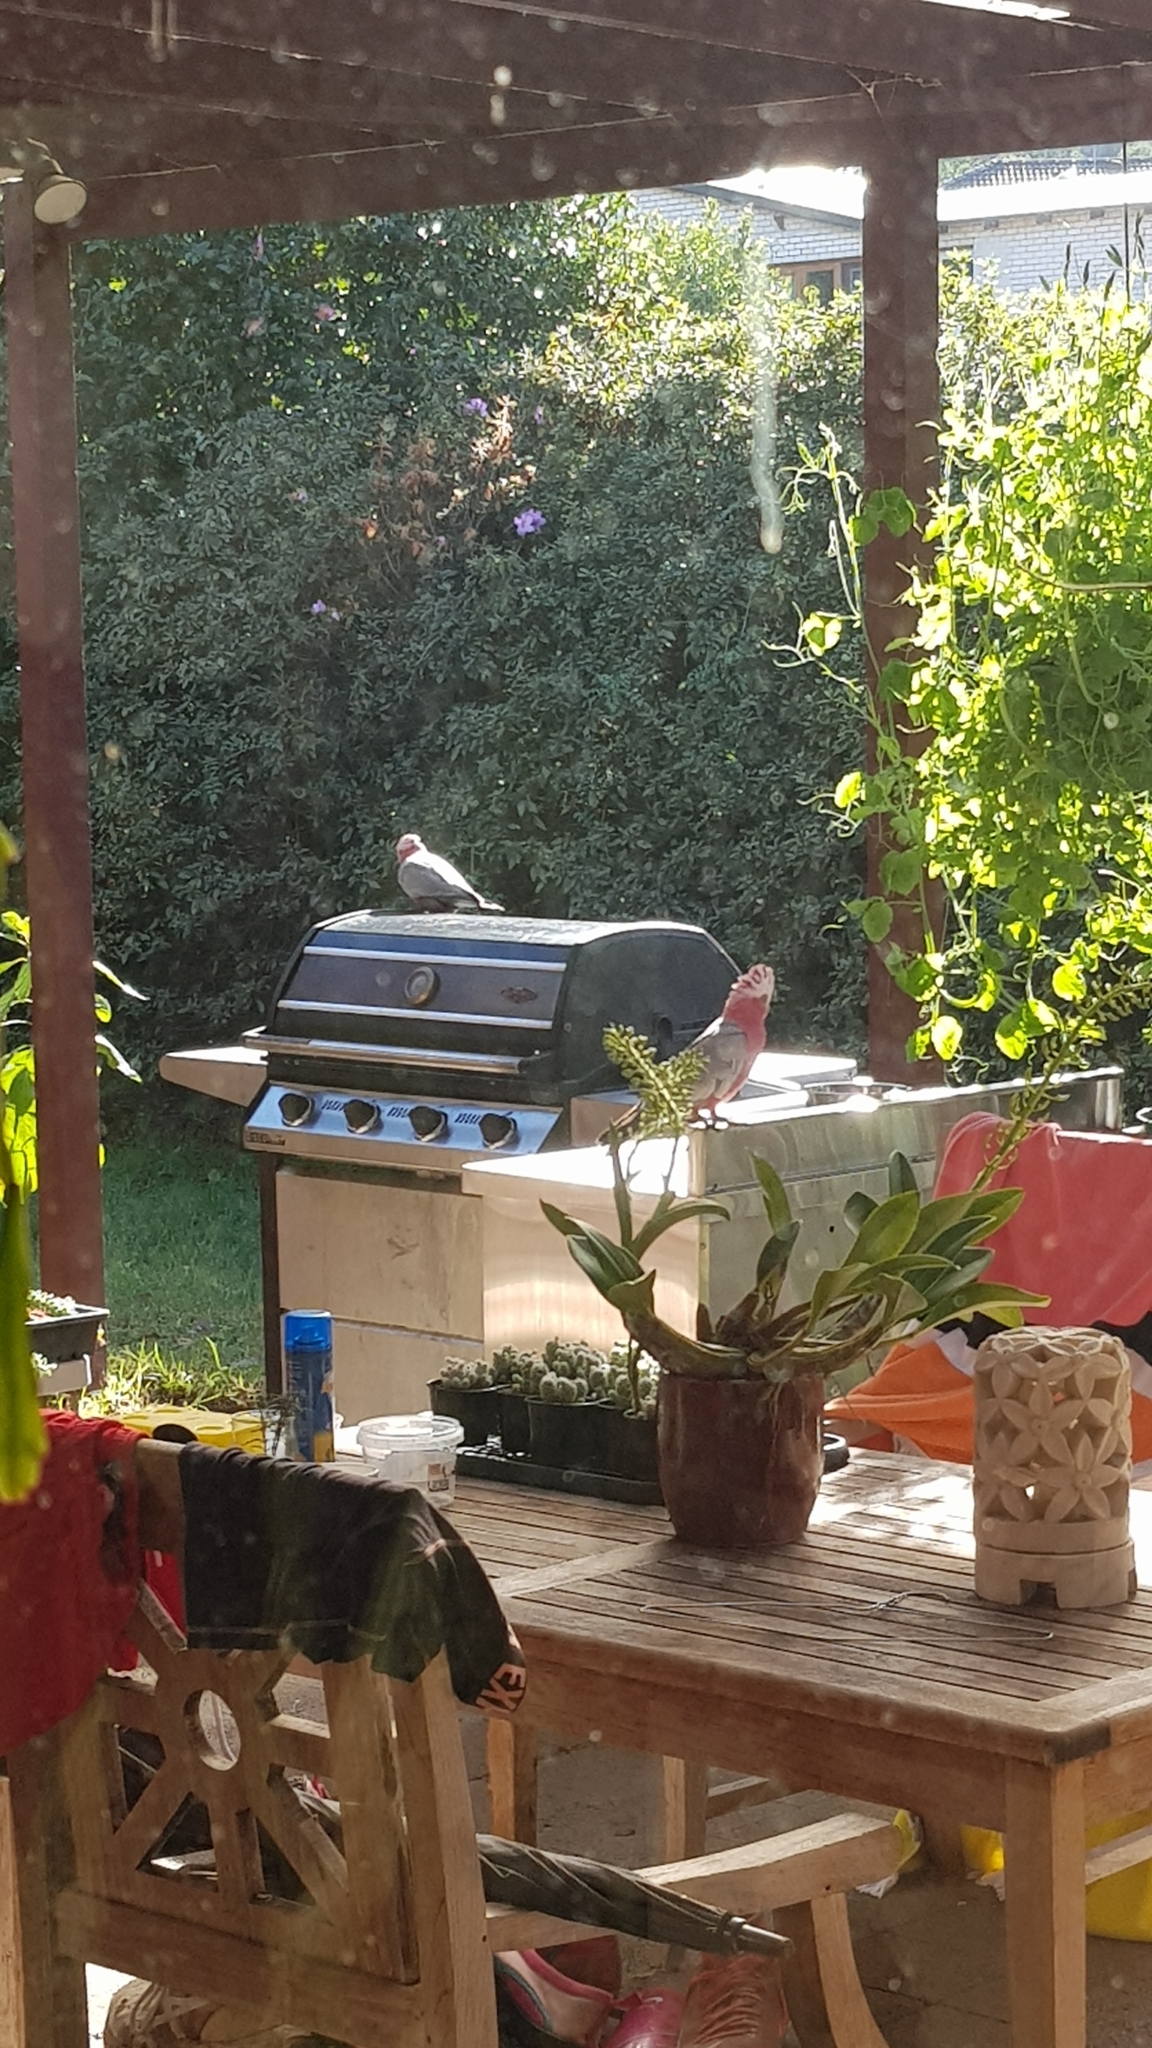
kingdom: Animalia
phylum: Chordata
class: Aves
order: Psittaciformes
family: Psittacidae
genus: Eolophus
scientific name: Eolophus roseicapilla
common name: Galah
